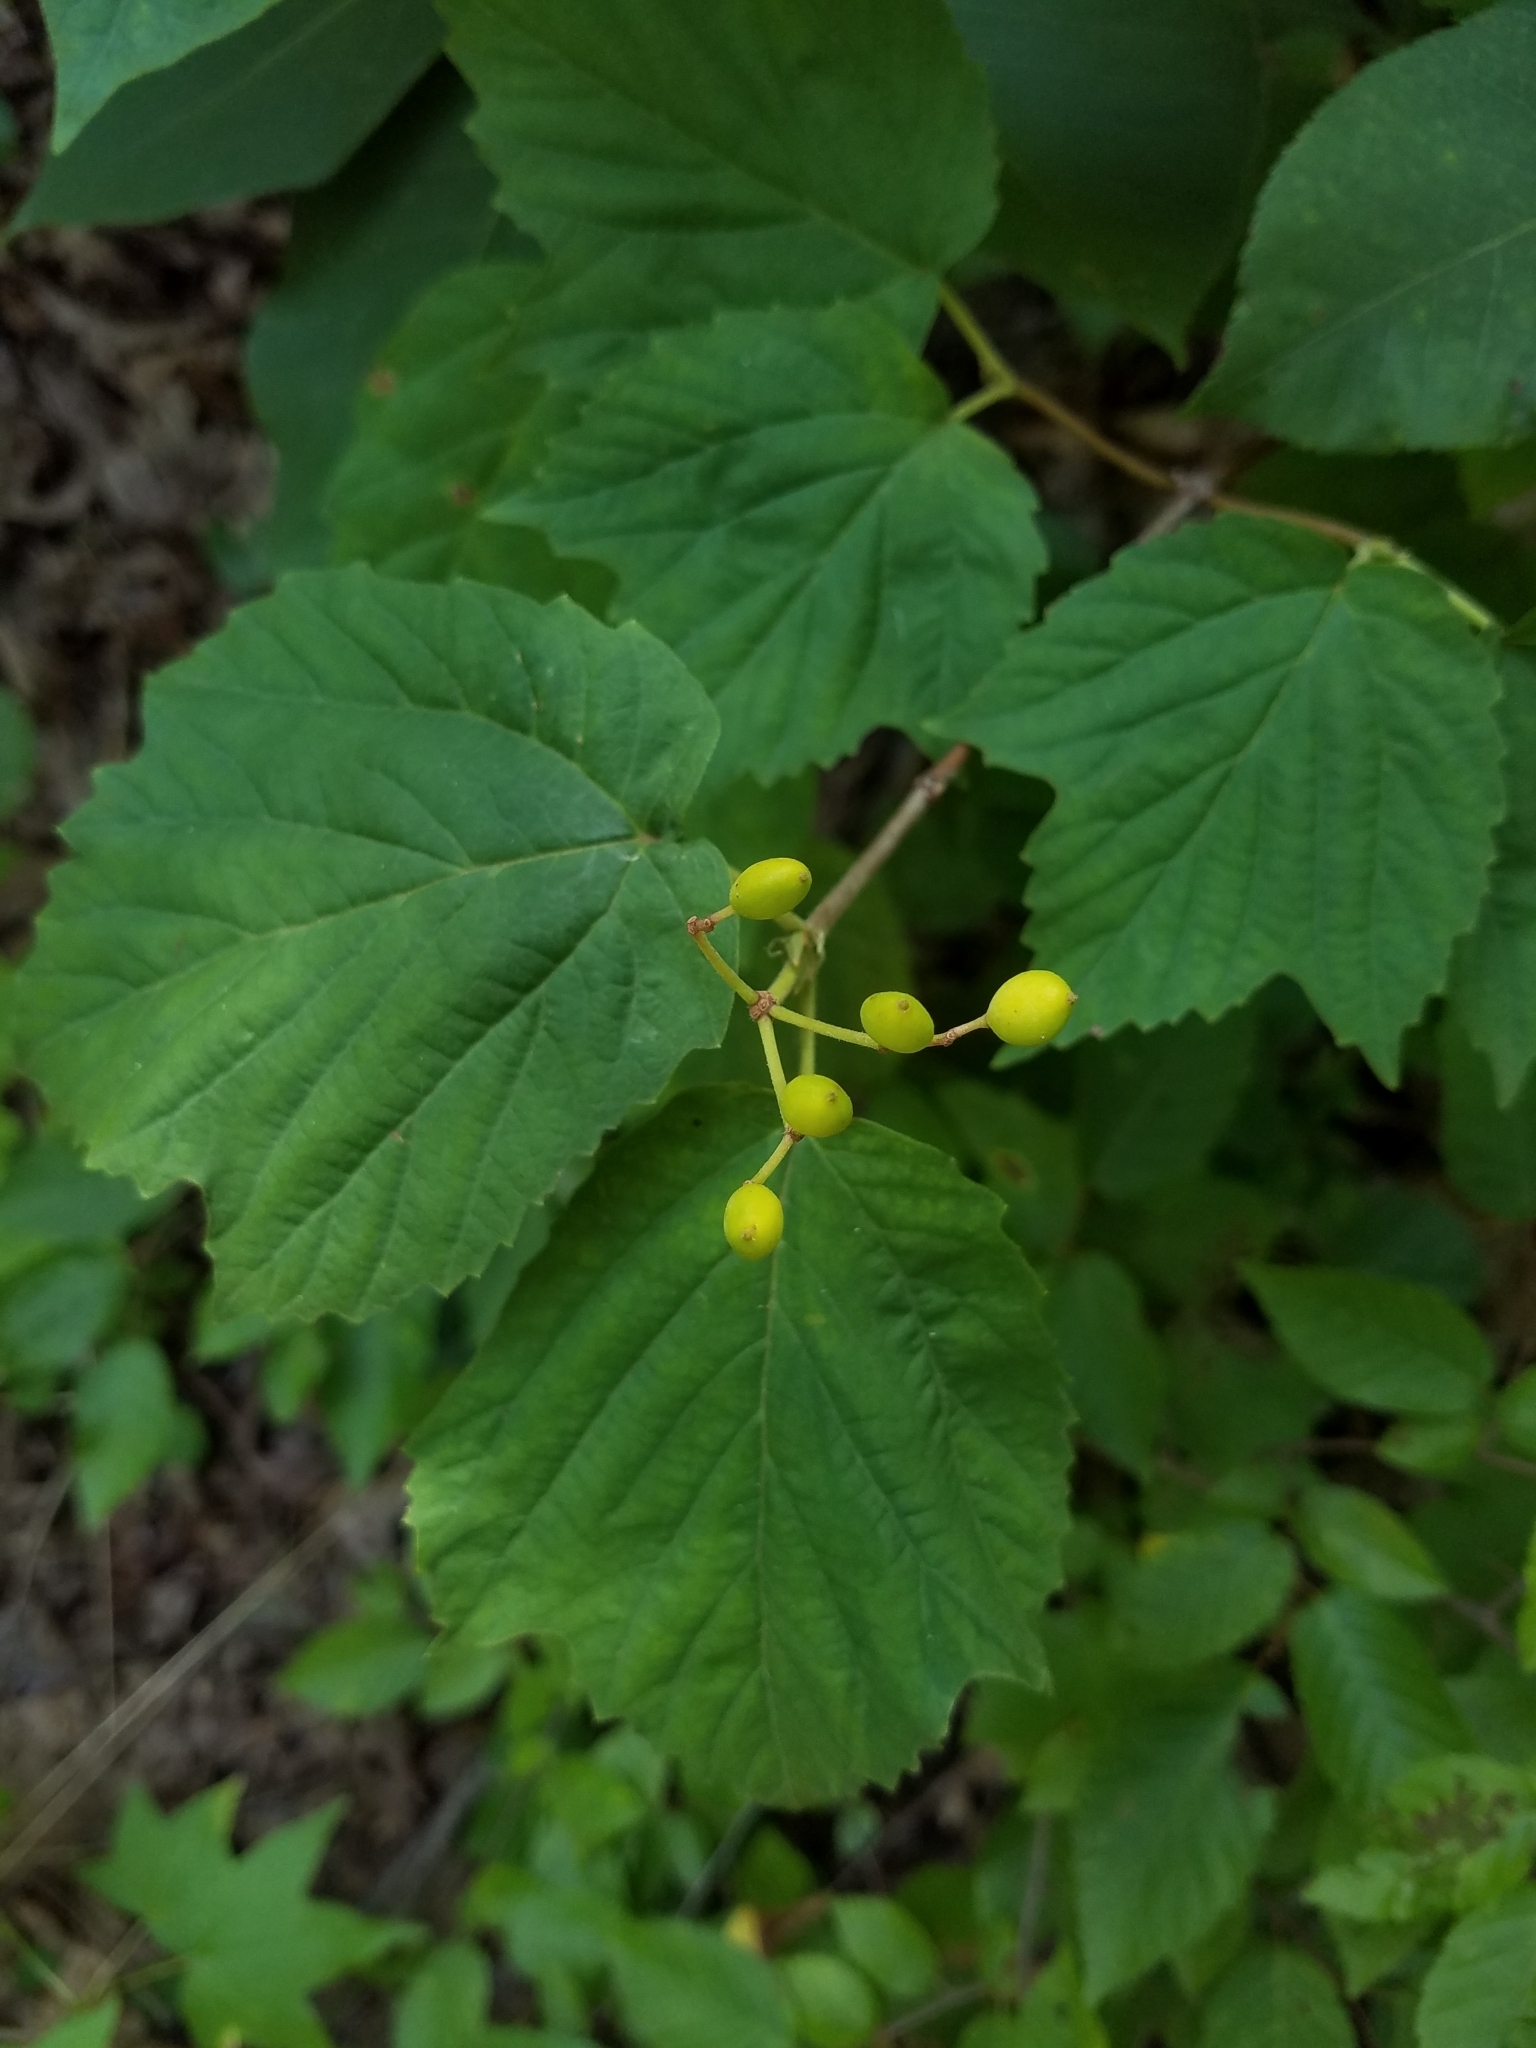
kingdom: Plantae
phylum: Tracheophyta
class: Magnoliopsida
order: Dipsacales
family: Viburnaceae
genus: Viburnum
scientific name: Viburnum acerifolium
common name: Dockmackie
